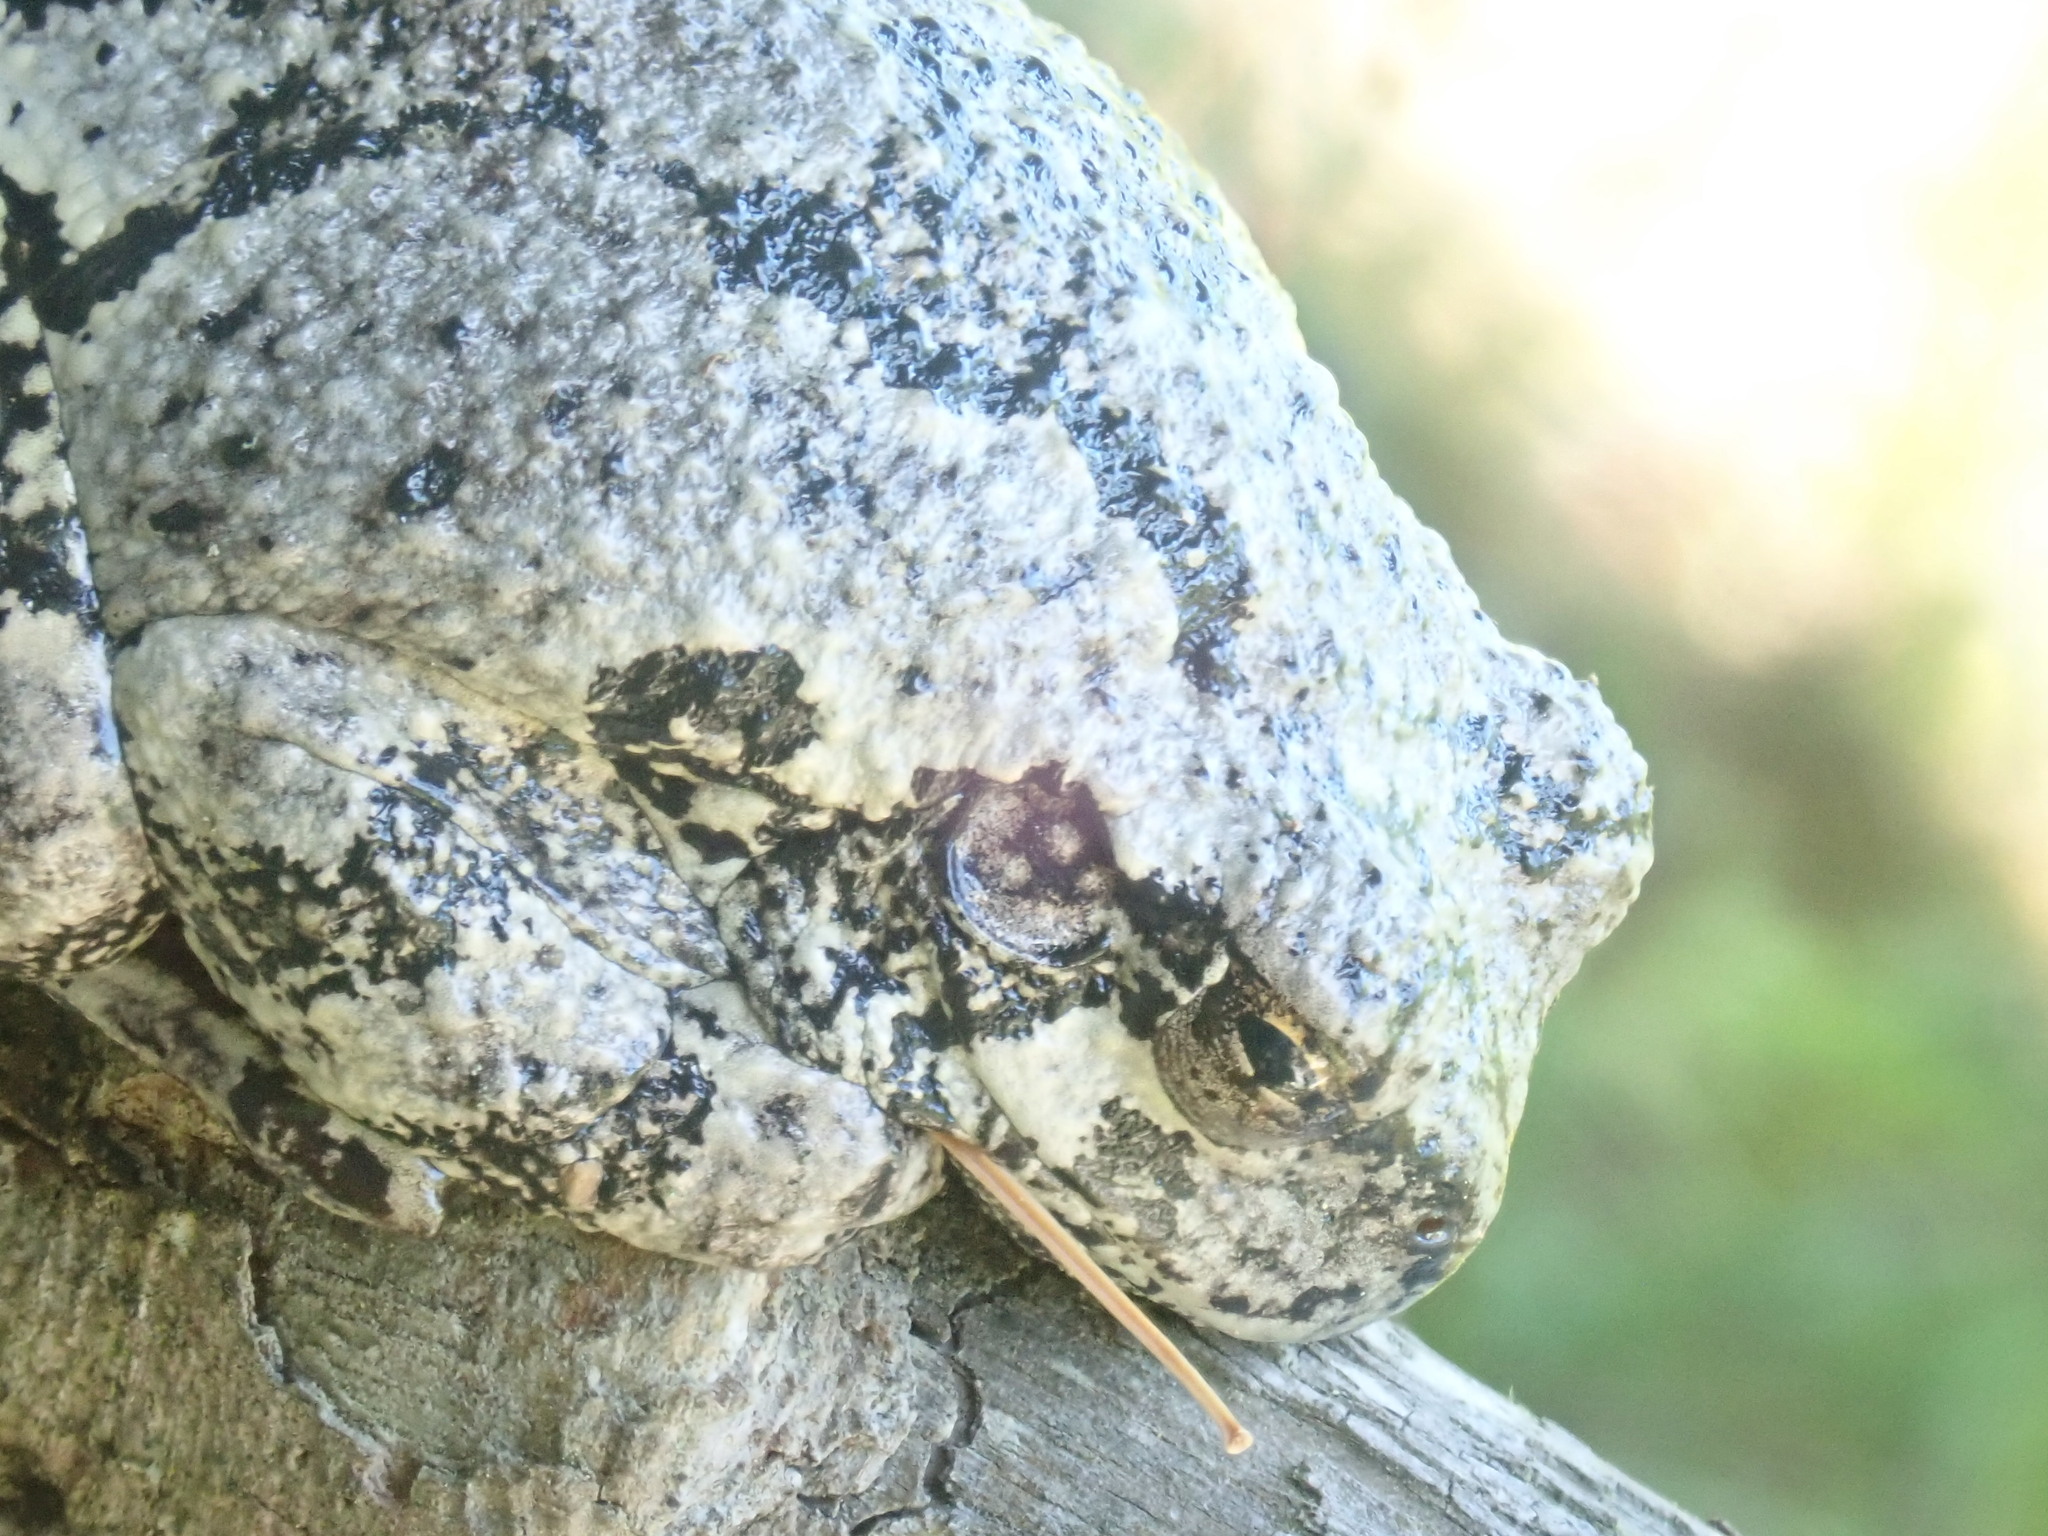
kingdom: Animalia
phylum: Chordata
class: Amphibia
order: Anura
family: Hylidae
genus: Dryophytes
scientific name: Dryophytes versicolor
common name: Gray treefrog
